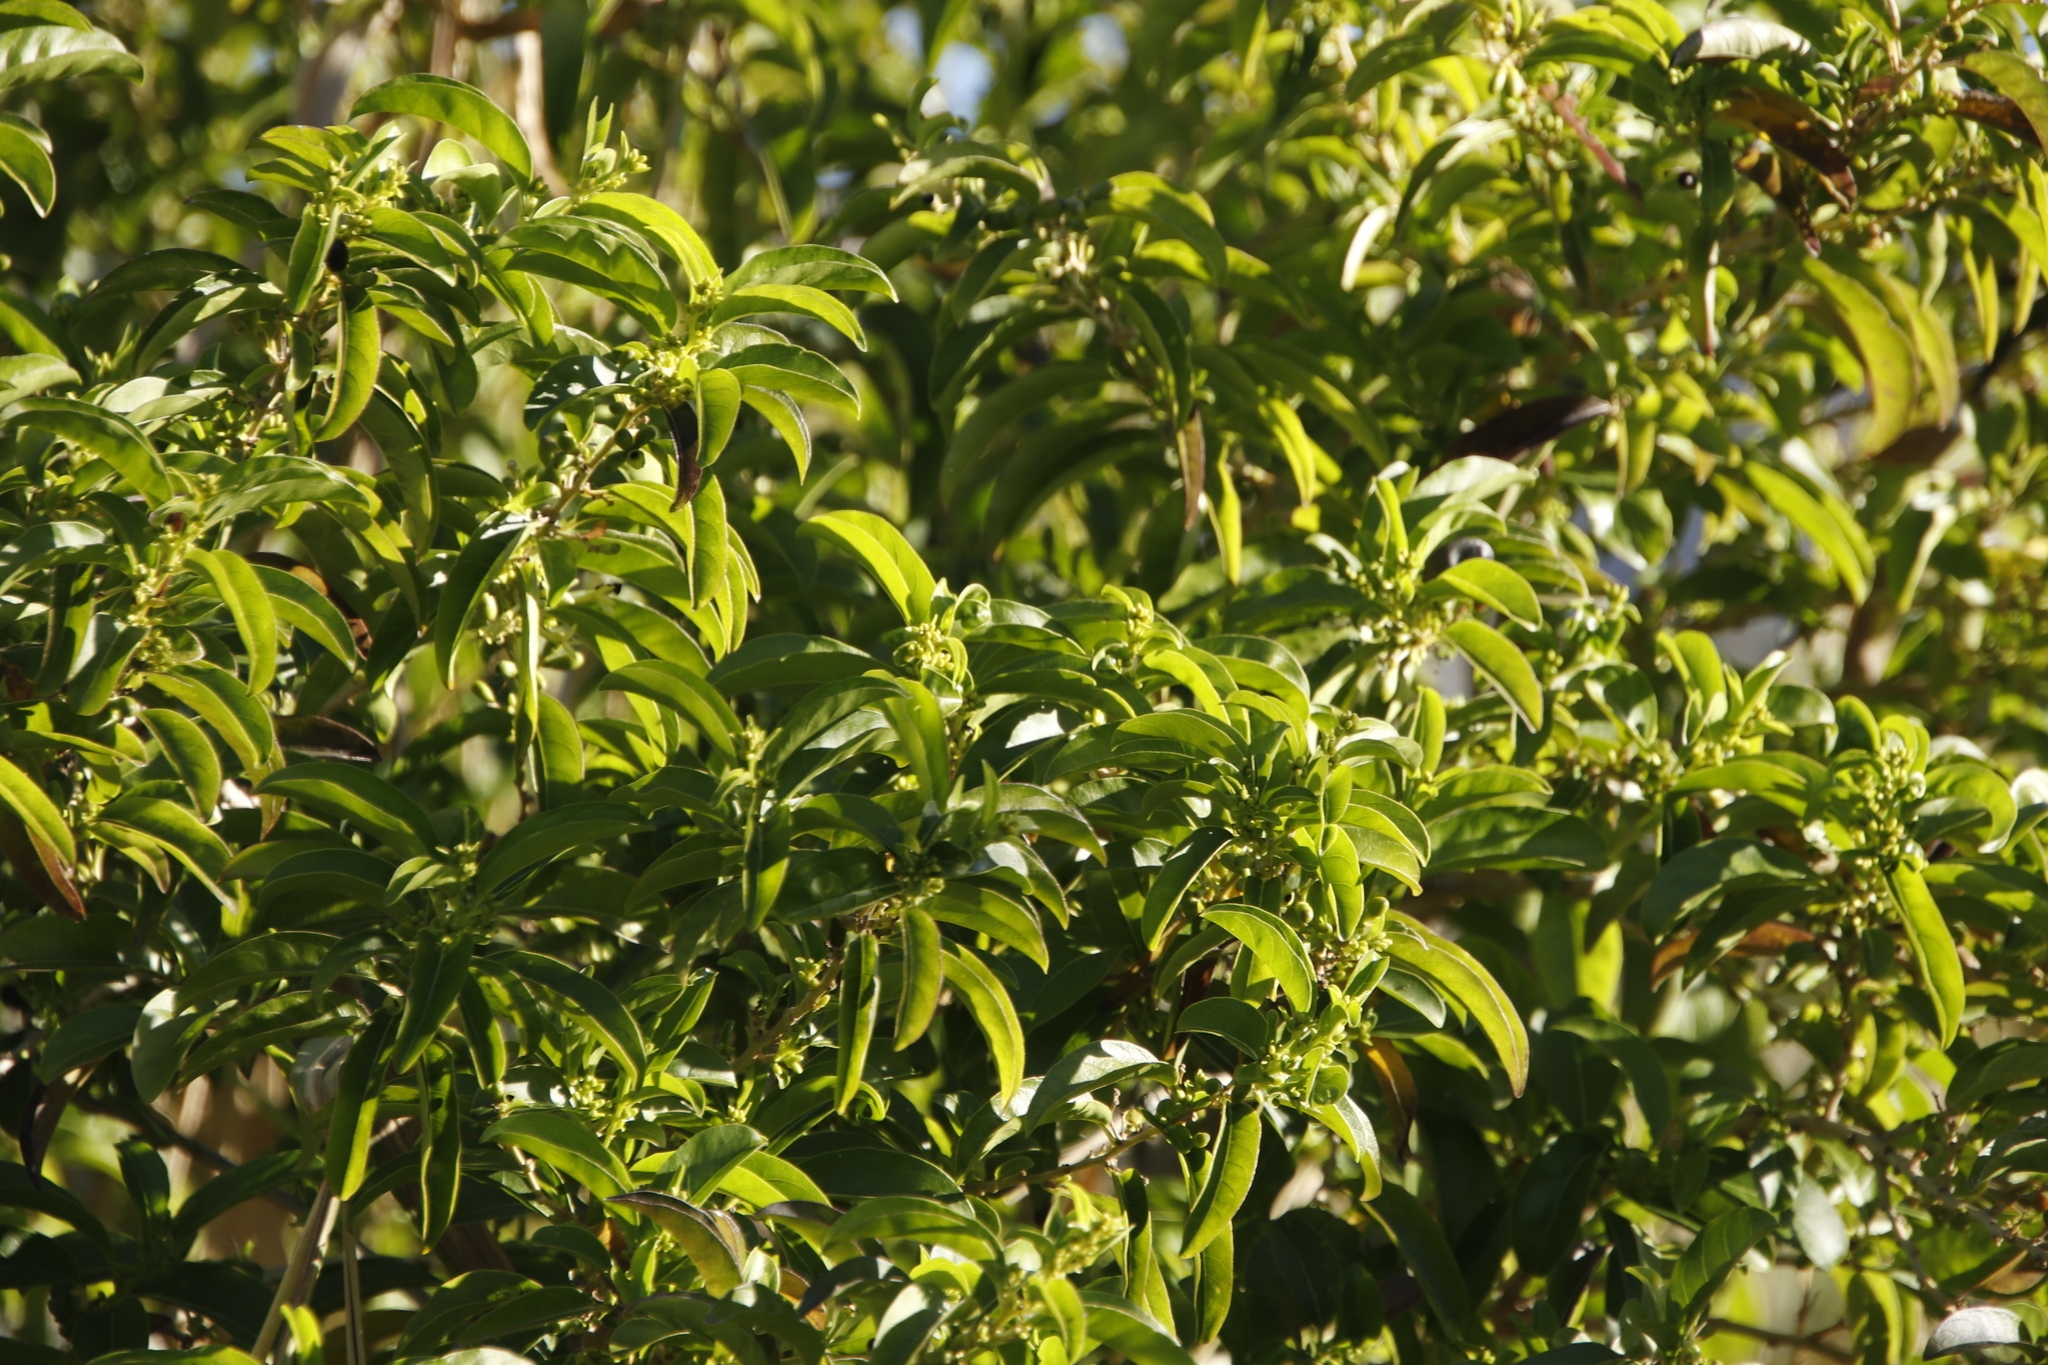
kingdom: Plantae
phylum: Tracheophyta
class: Magnoliopsida
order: Solanales
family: Solanaceae
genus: Cestrum
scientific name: Cestrum laevigatum
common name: Inkberry
